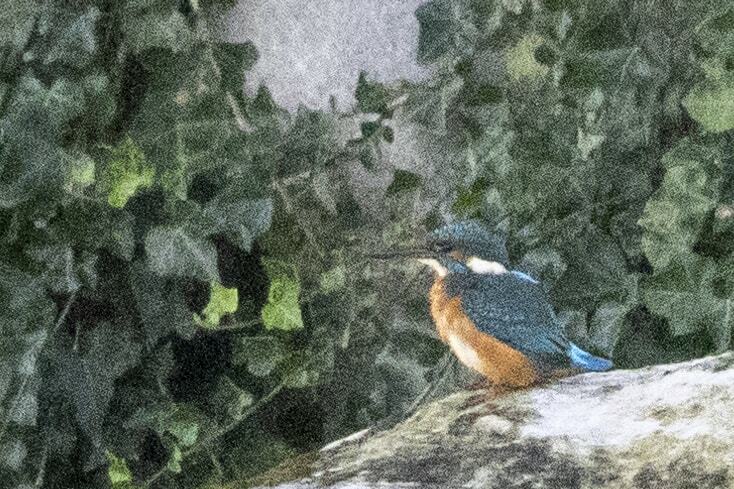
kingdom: Animalia
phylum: Chordata
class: Aves
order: Coraciiformes
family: Alcedinidae
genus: Alcedo
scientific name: Alcedo atthis
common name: Common kingfisher
